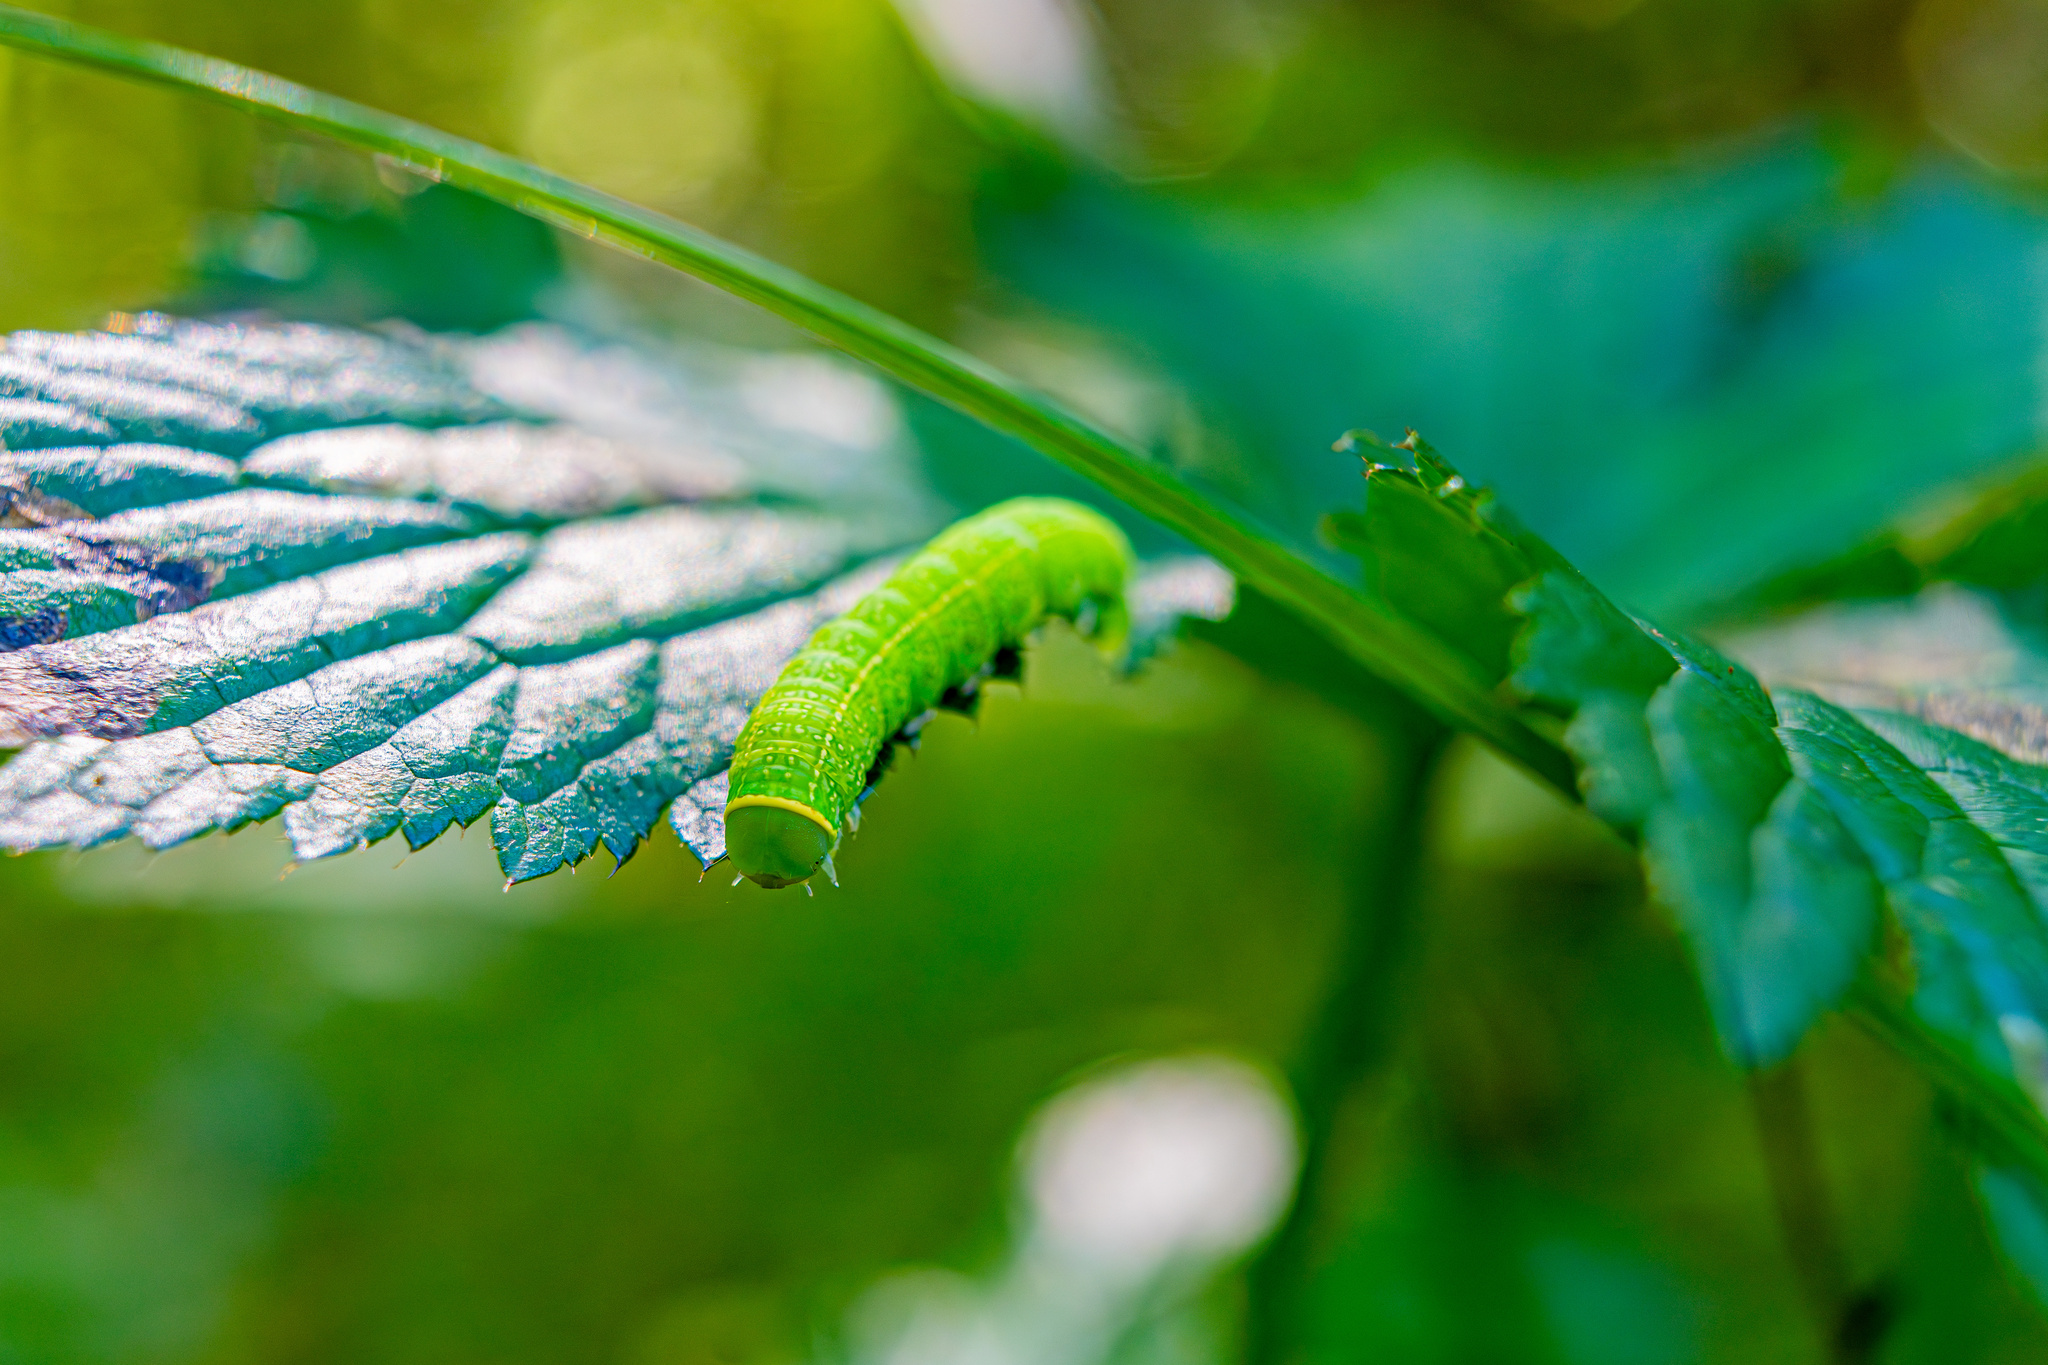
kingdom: Animalia
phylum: Arthropoda
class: Insecta
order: Lepidoptera
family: Nolidae
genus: Pseudoips
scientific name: Pseudoips prasinana
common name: Green silver-lines
